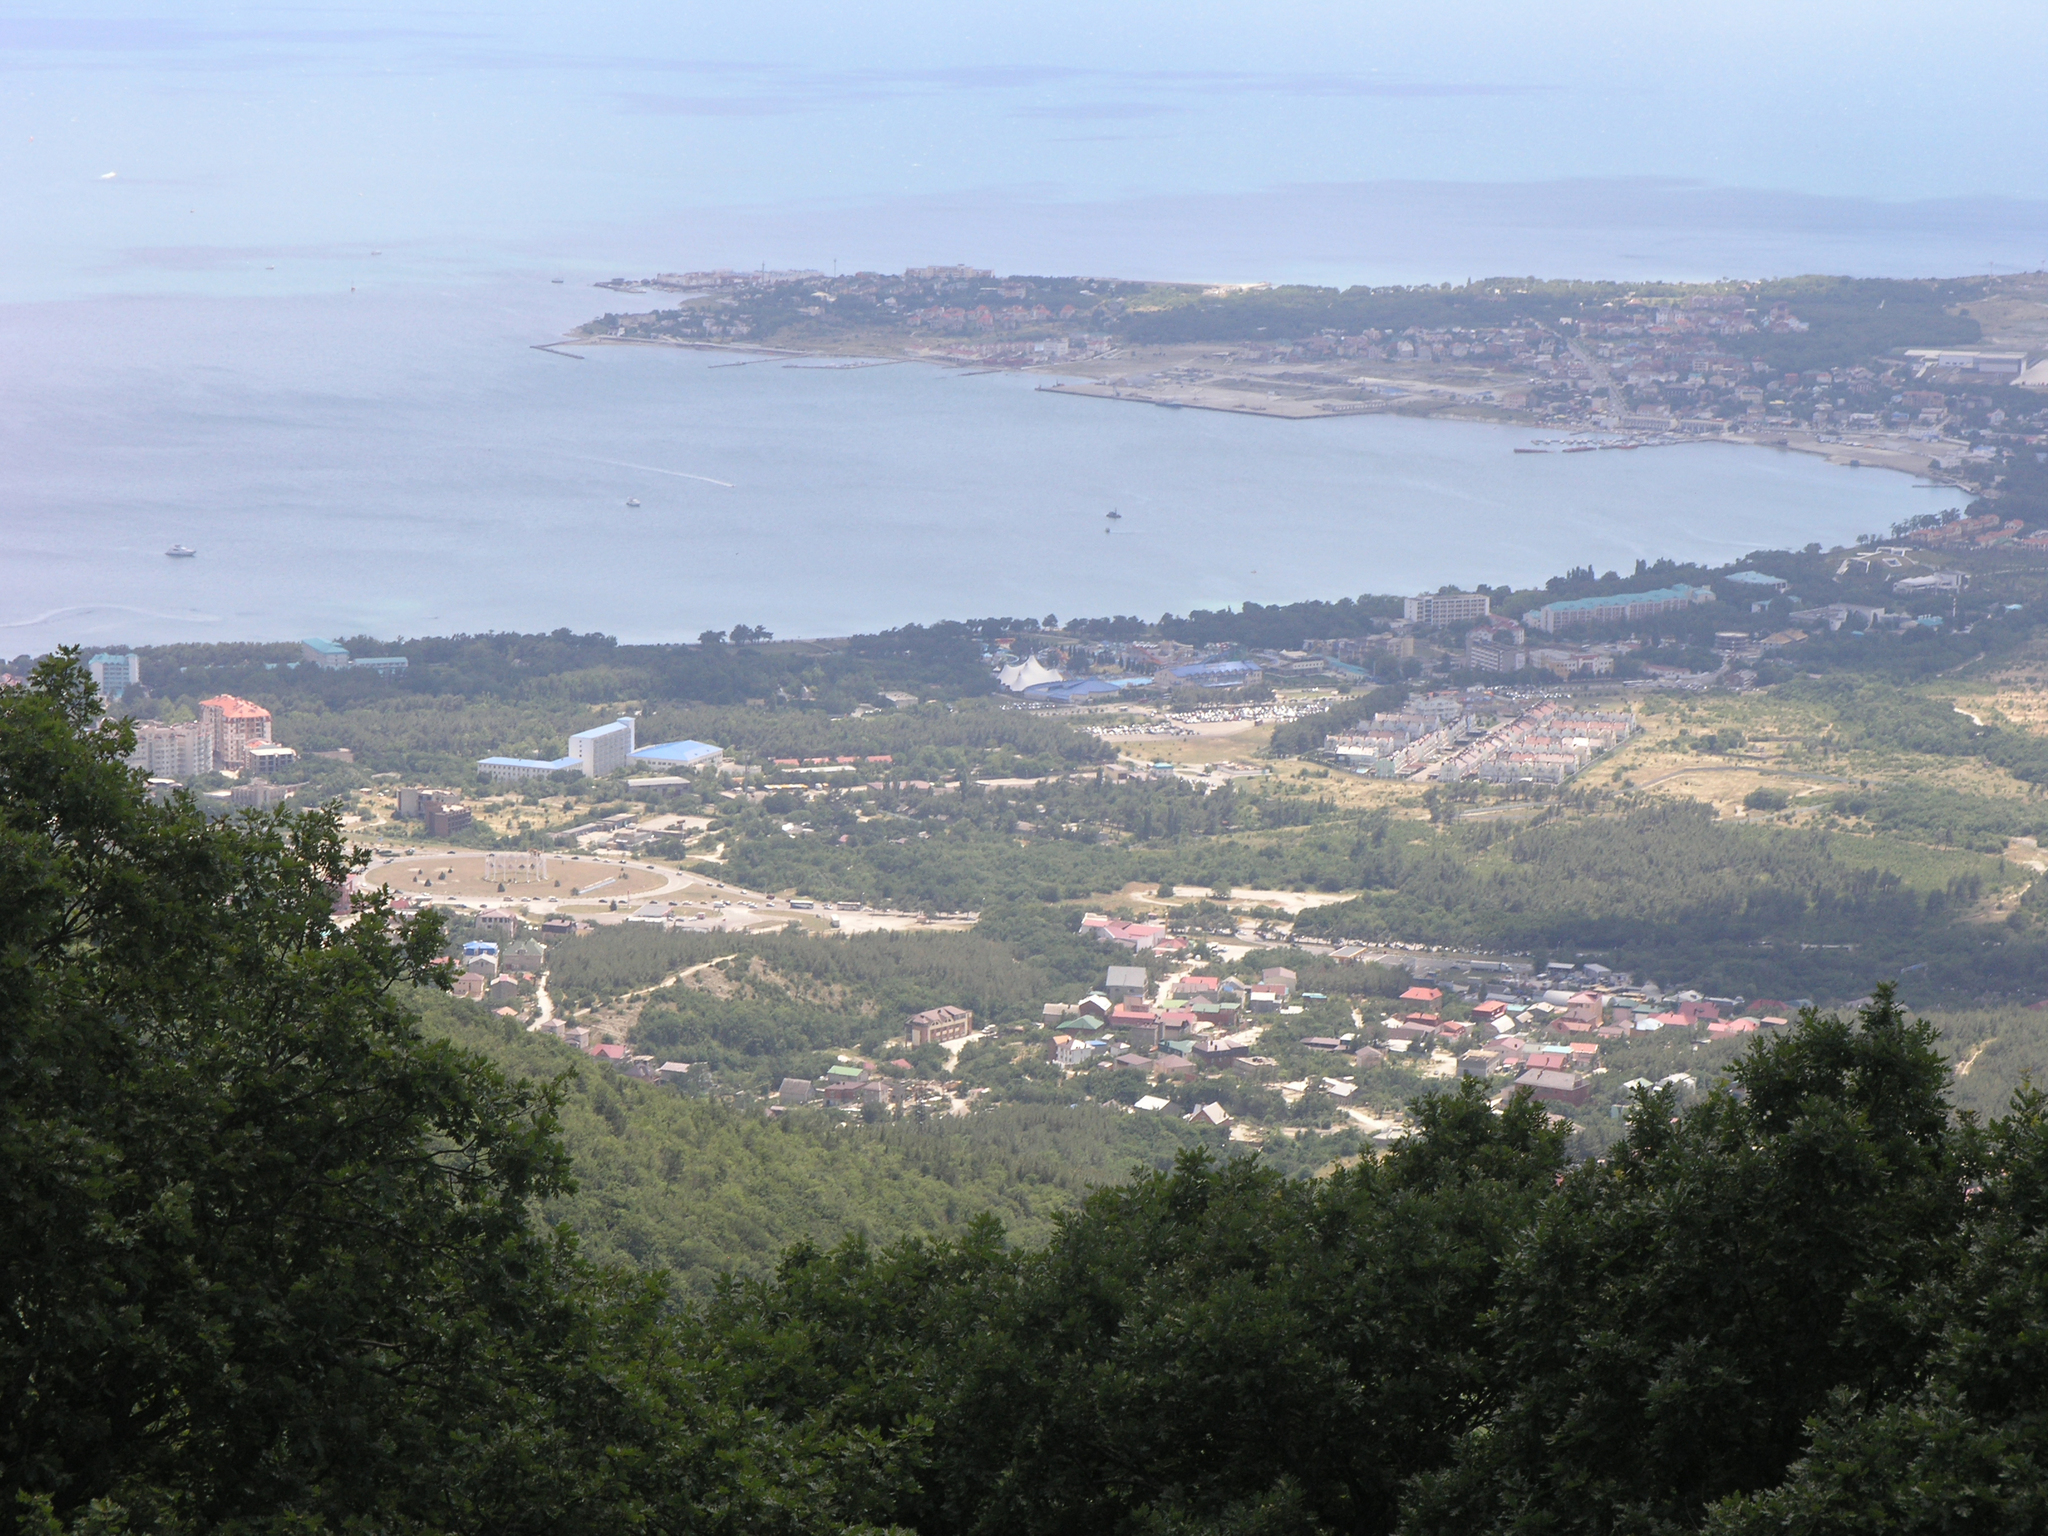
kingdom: Plantae
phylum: Tracheophyta
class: Magnoliopsida
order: Fagales
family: Fagaceae
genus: Quercus
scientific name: Quercus pubescens
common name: Downy oak
